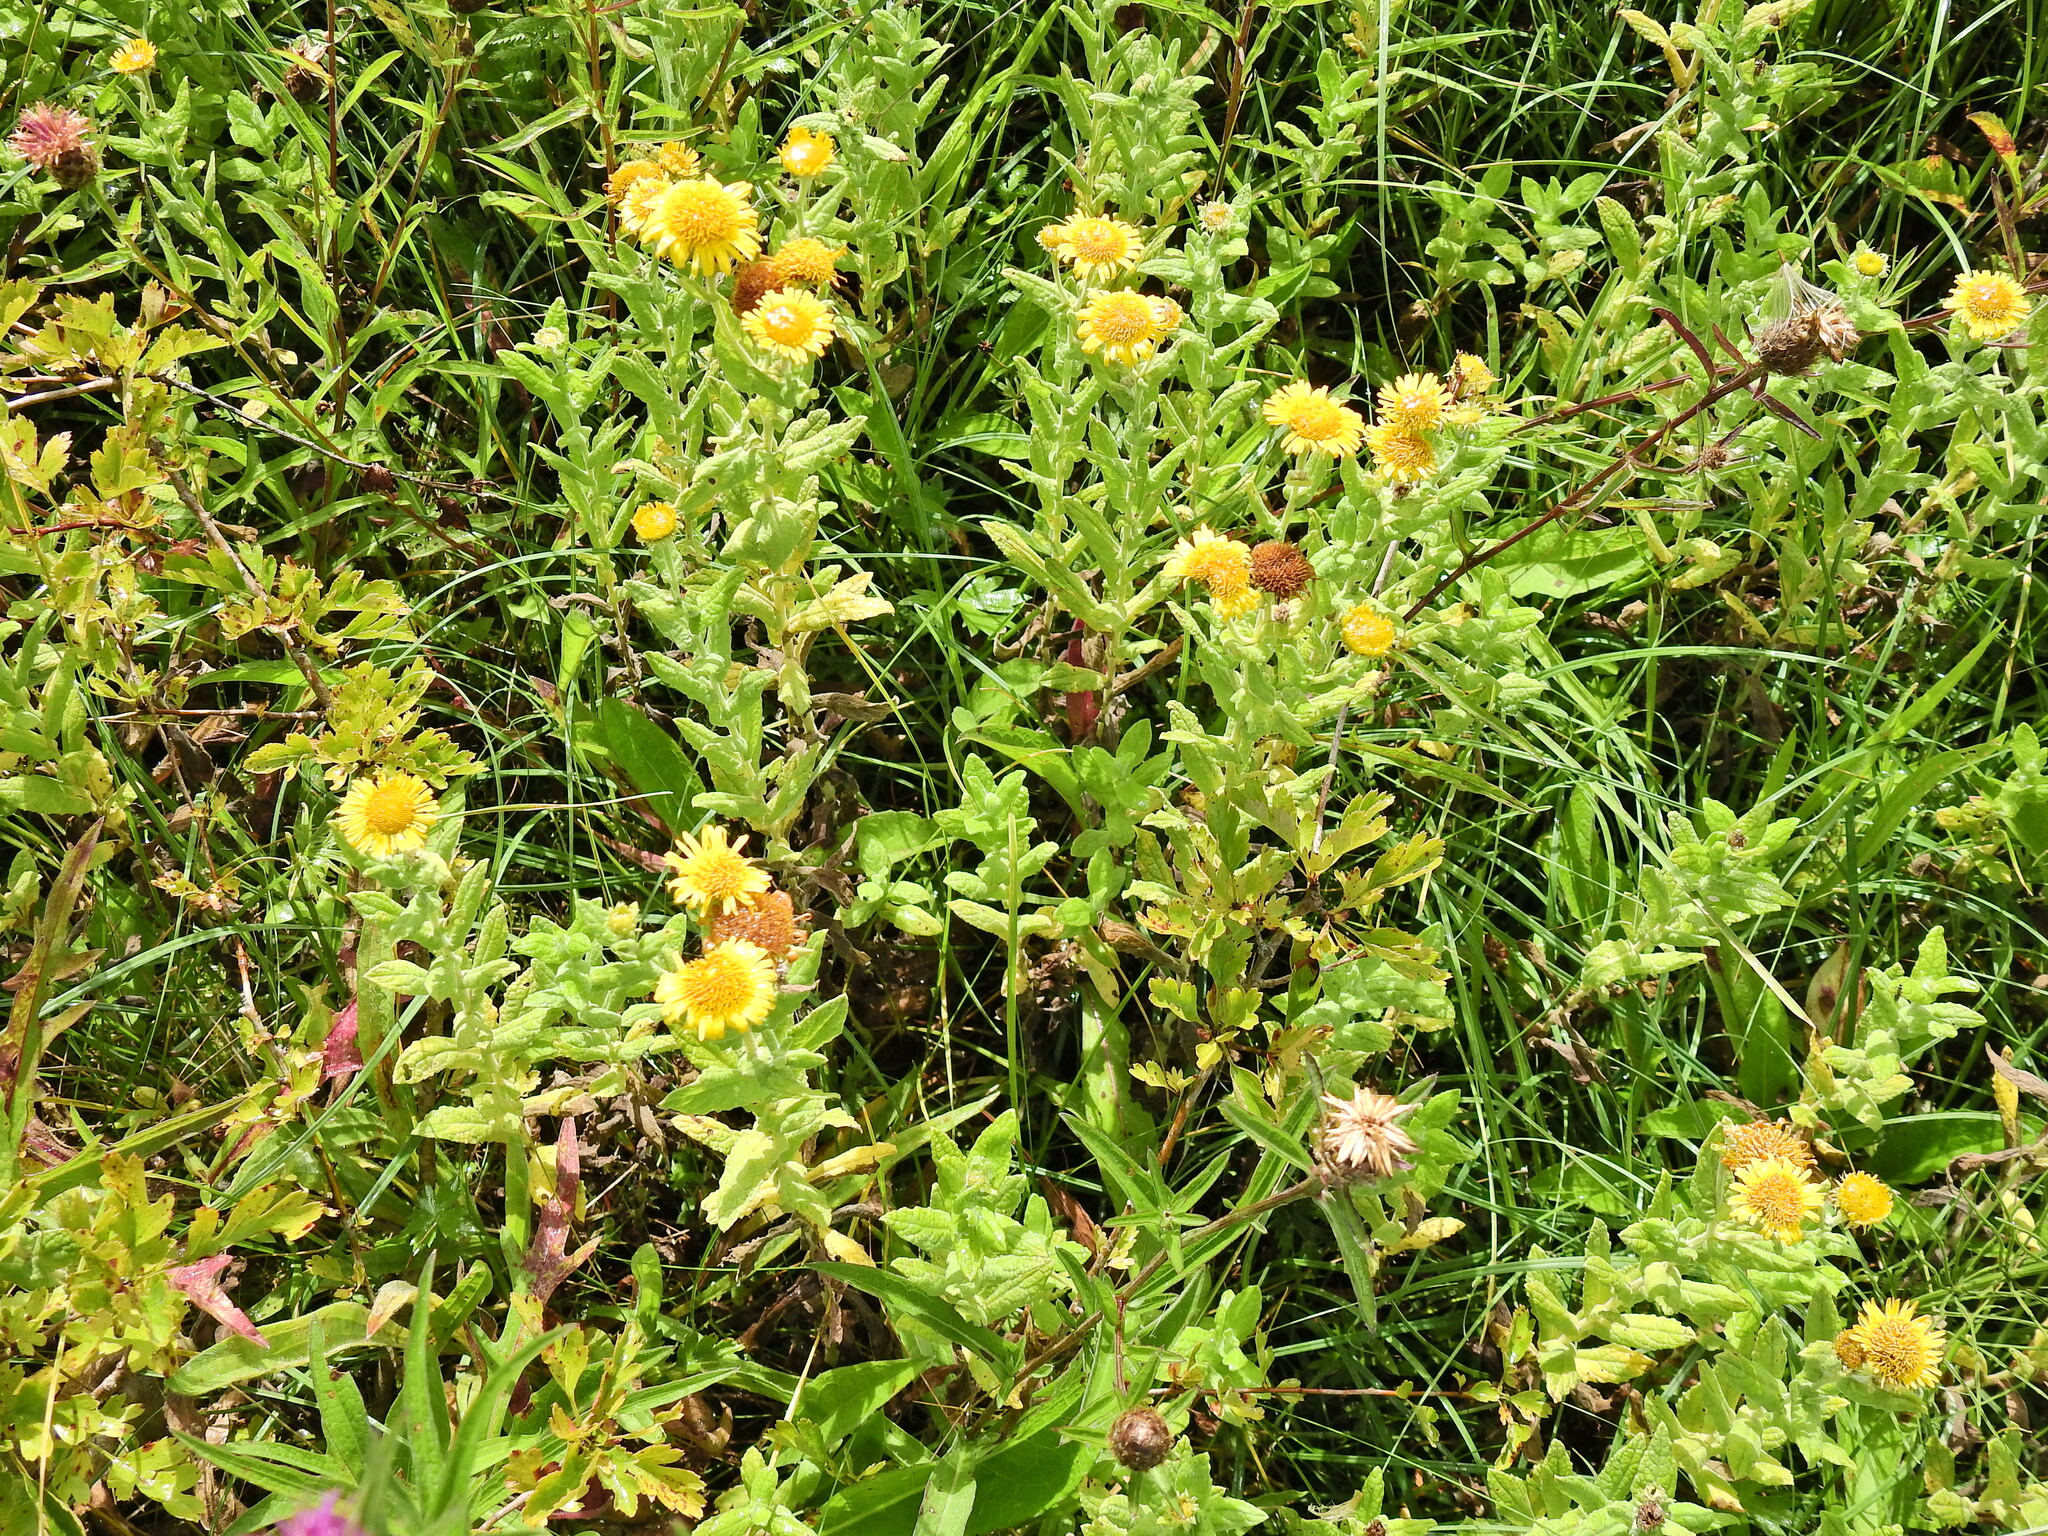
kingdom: Plantae
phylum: Tracheophyta
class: Magnoliopsida
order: Asterales
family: Asteraceae
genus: Pulicaria
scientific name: Pulicaria dysenterica
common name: Common fleabane
